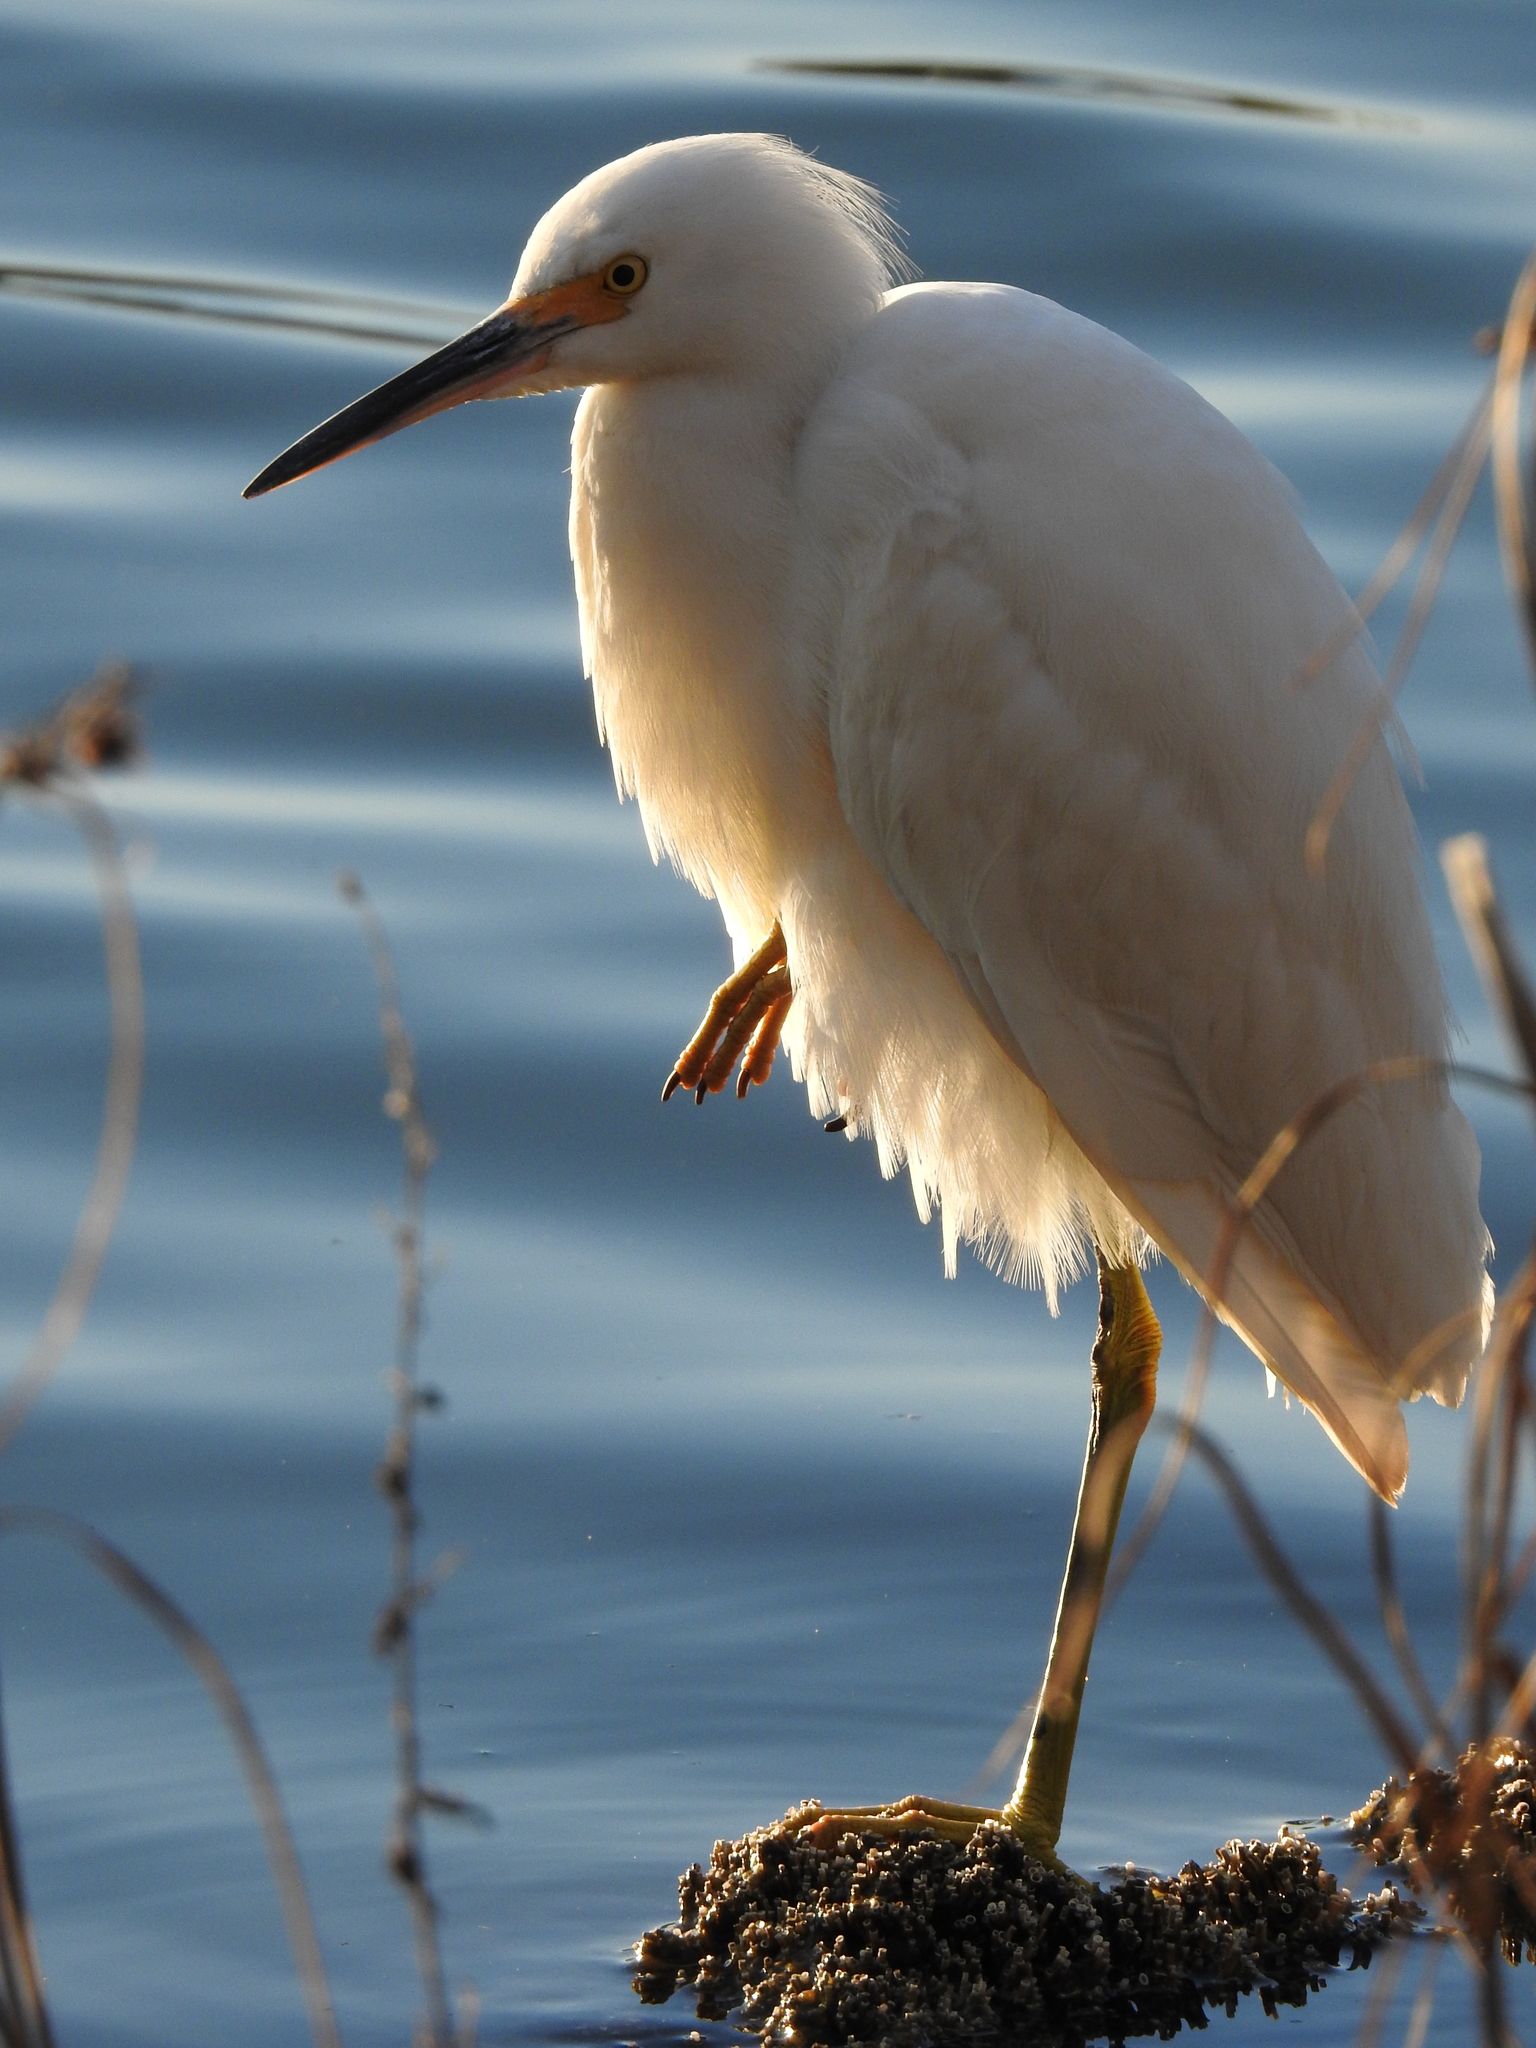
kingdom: Animalia
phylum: Chordata
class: Aves
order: Pelecaniformes
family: Ardeidae
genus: Egretta
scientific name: Egretta thula
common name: Snowy egret
